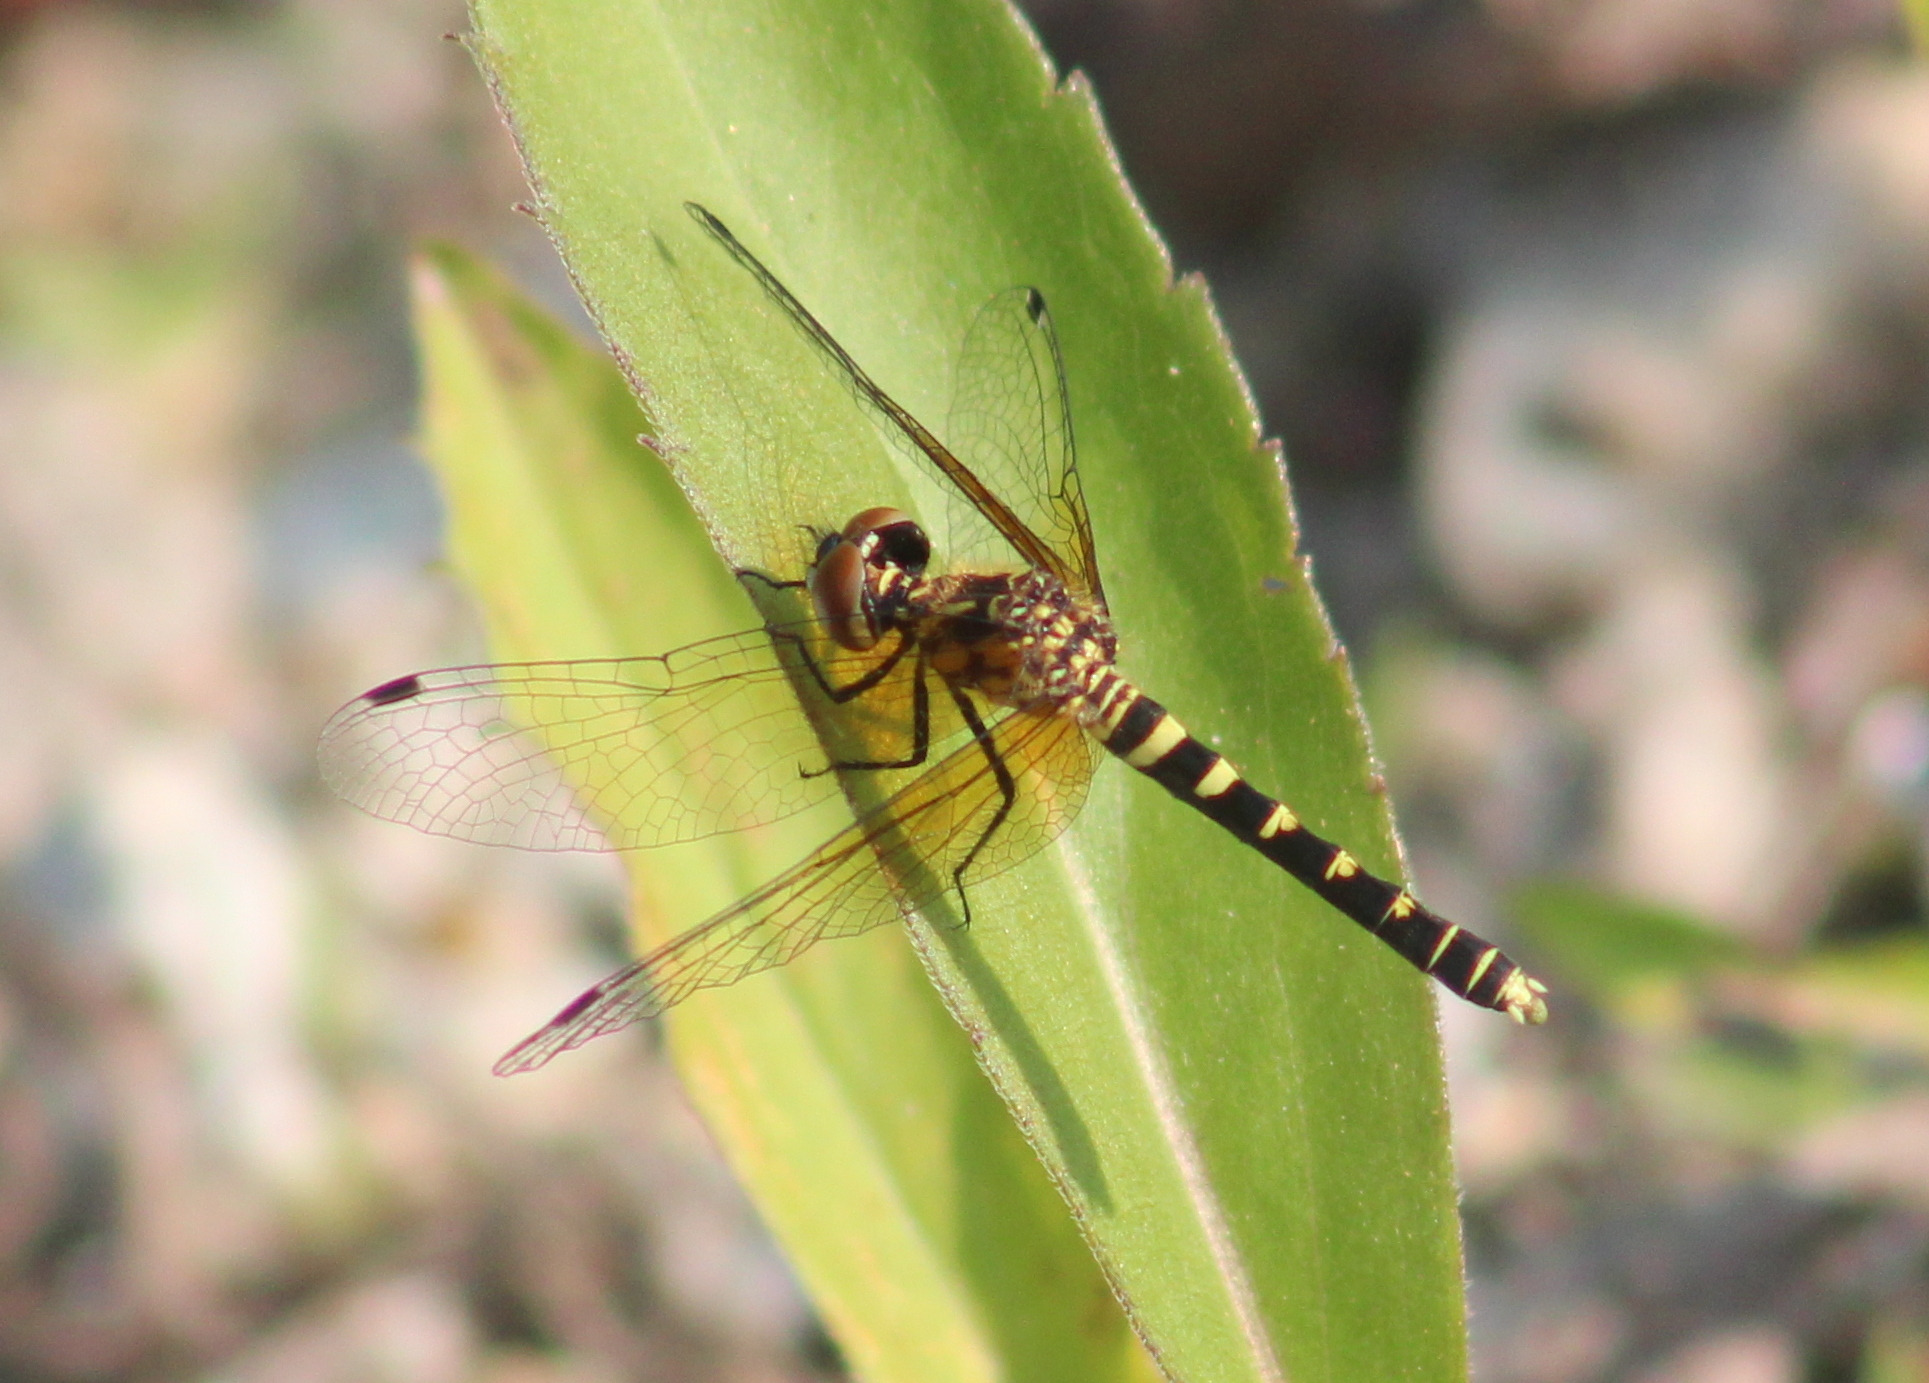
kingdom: Animalia
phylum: Arthropoda
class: Insecta
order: Odonata
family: Libellulidae
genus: Nannothemis
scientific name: Nannothemis bella
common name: Elfin skimmer
